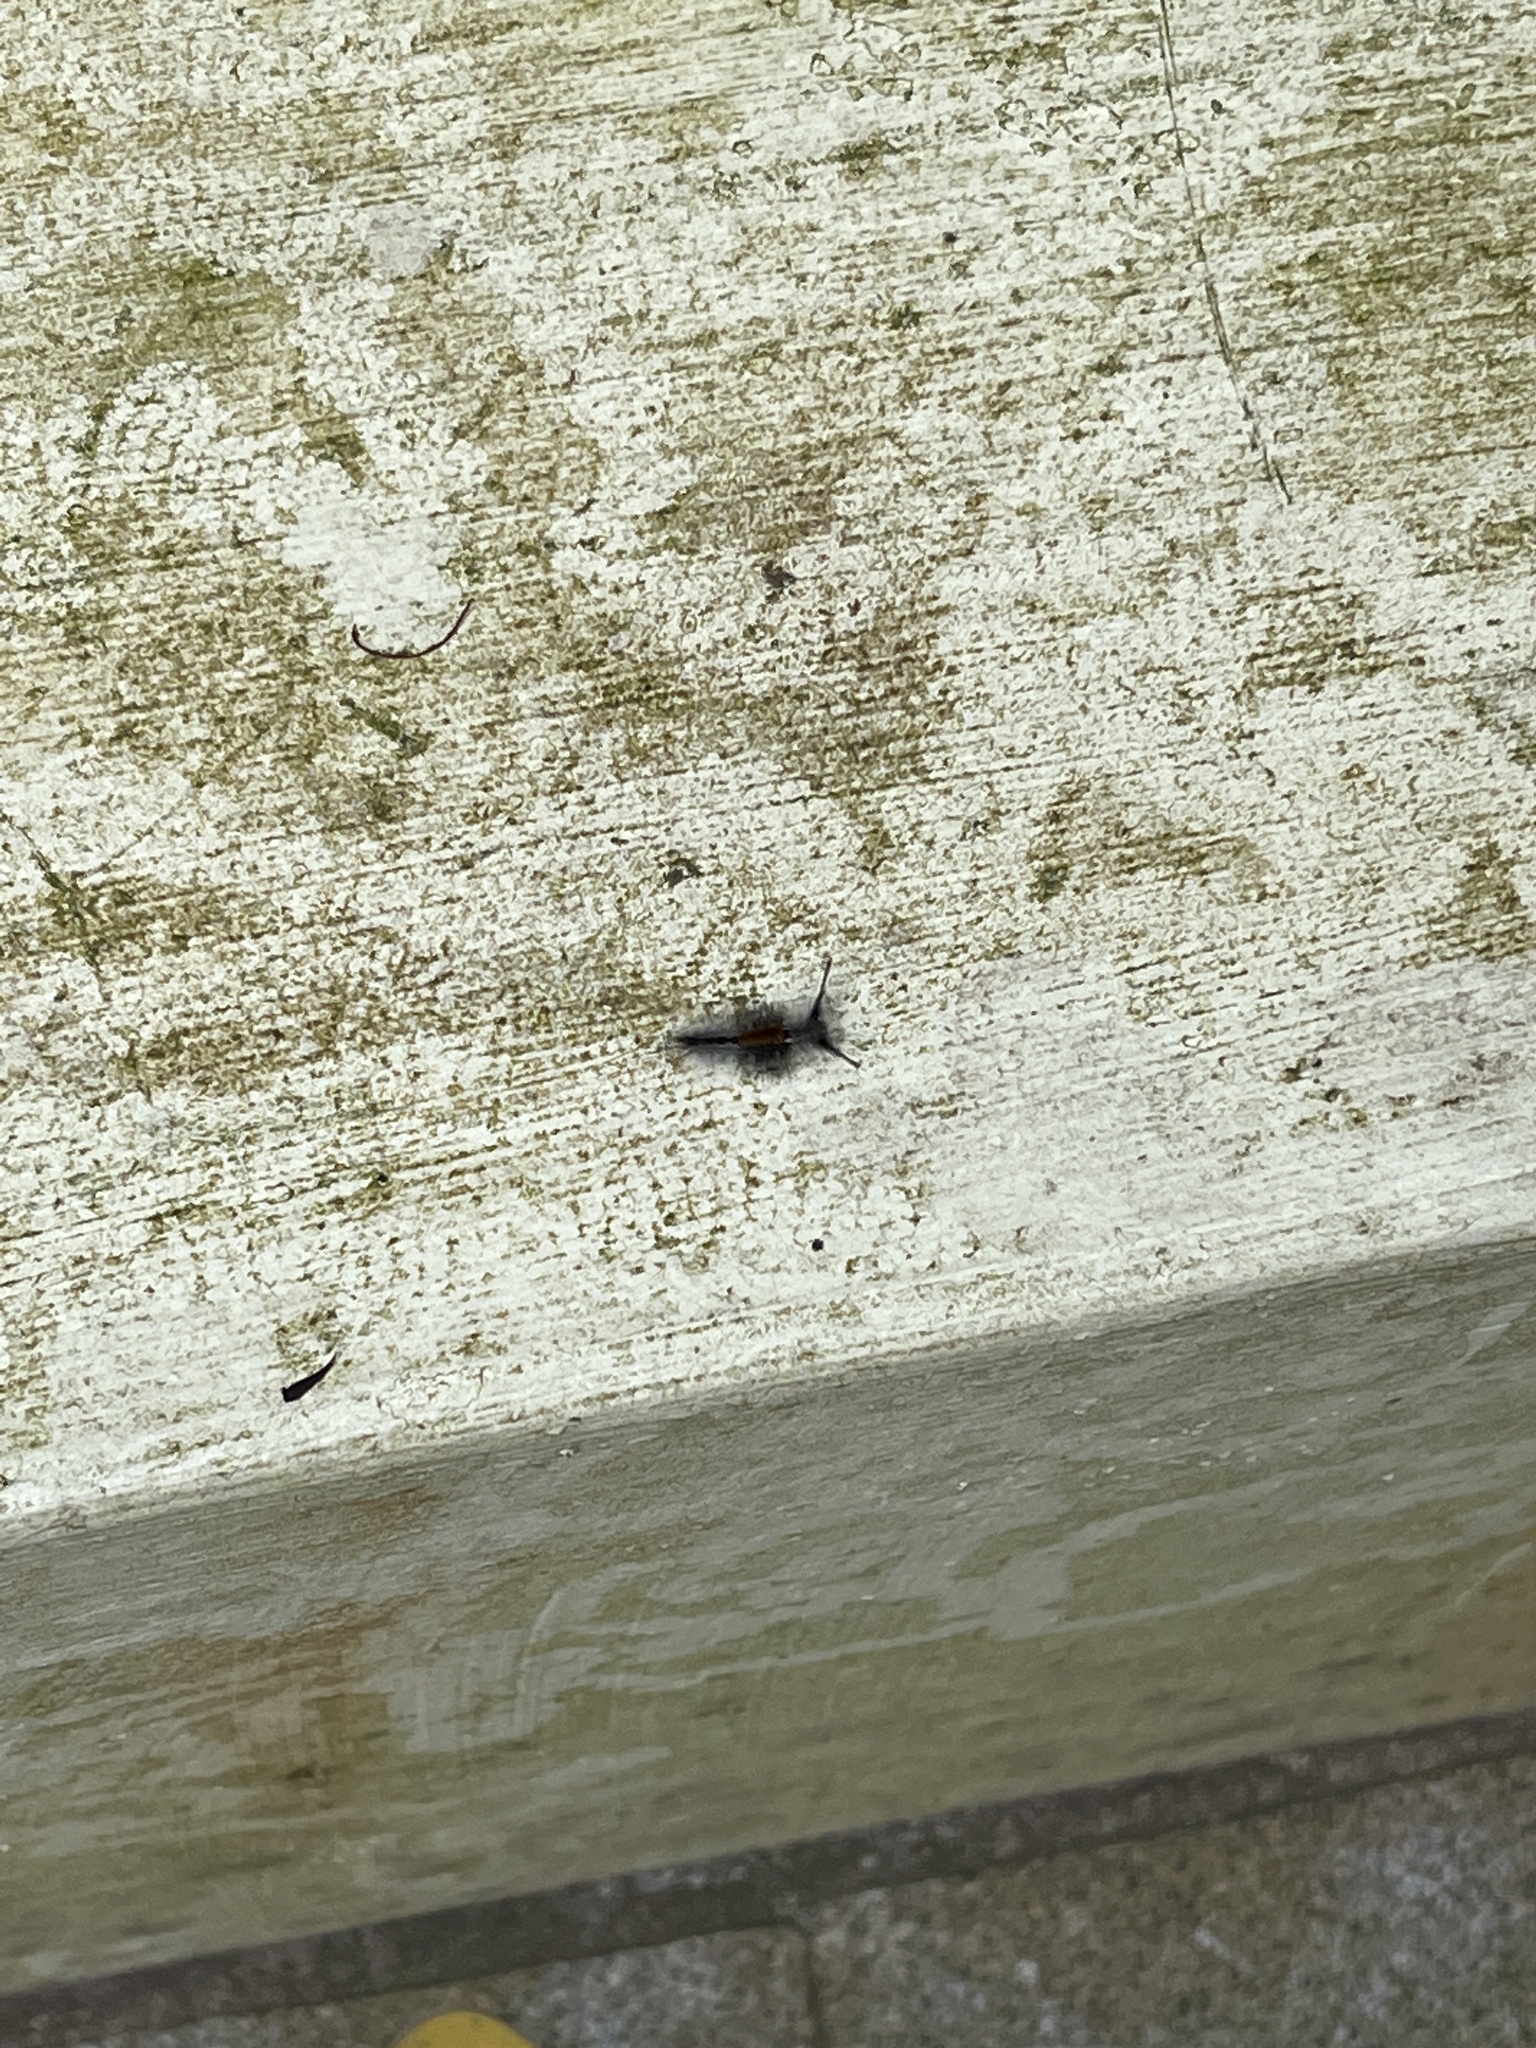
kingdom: Animalia
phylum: Arthropoda
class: Insecta
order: Lepidoptera
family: Erebidae
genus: Dasychira
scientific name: Dasychira chekiangensis
